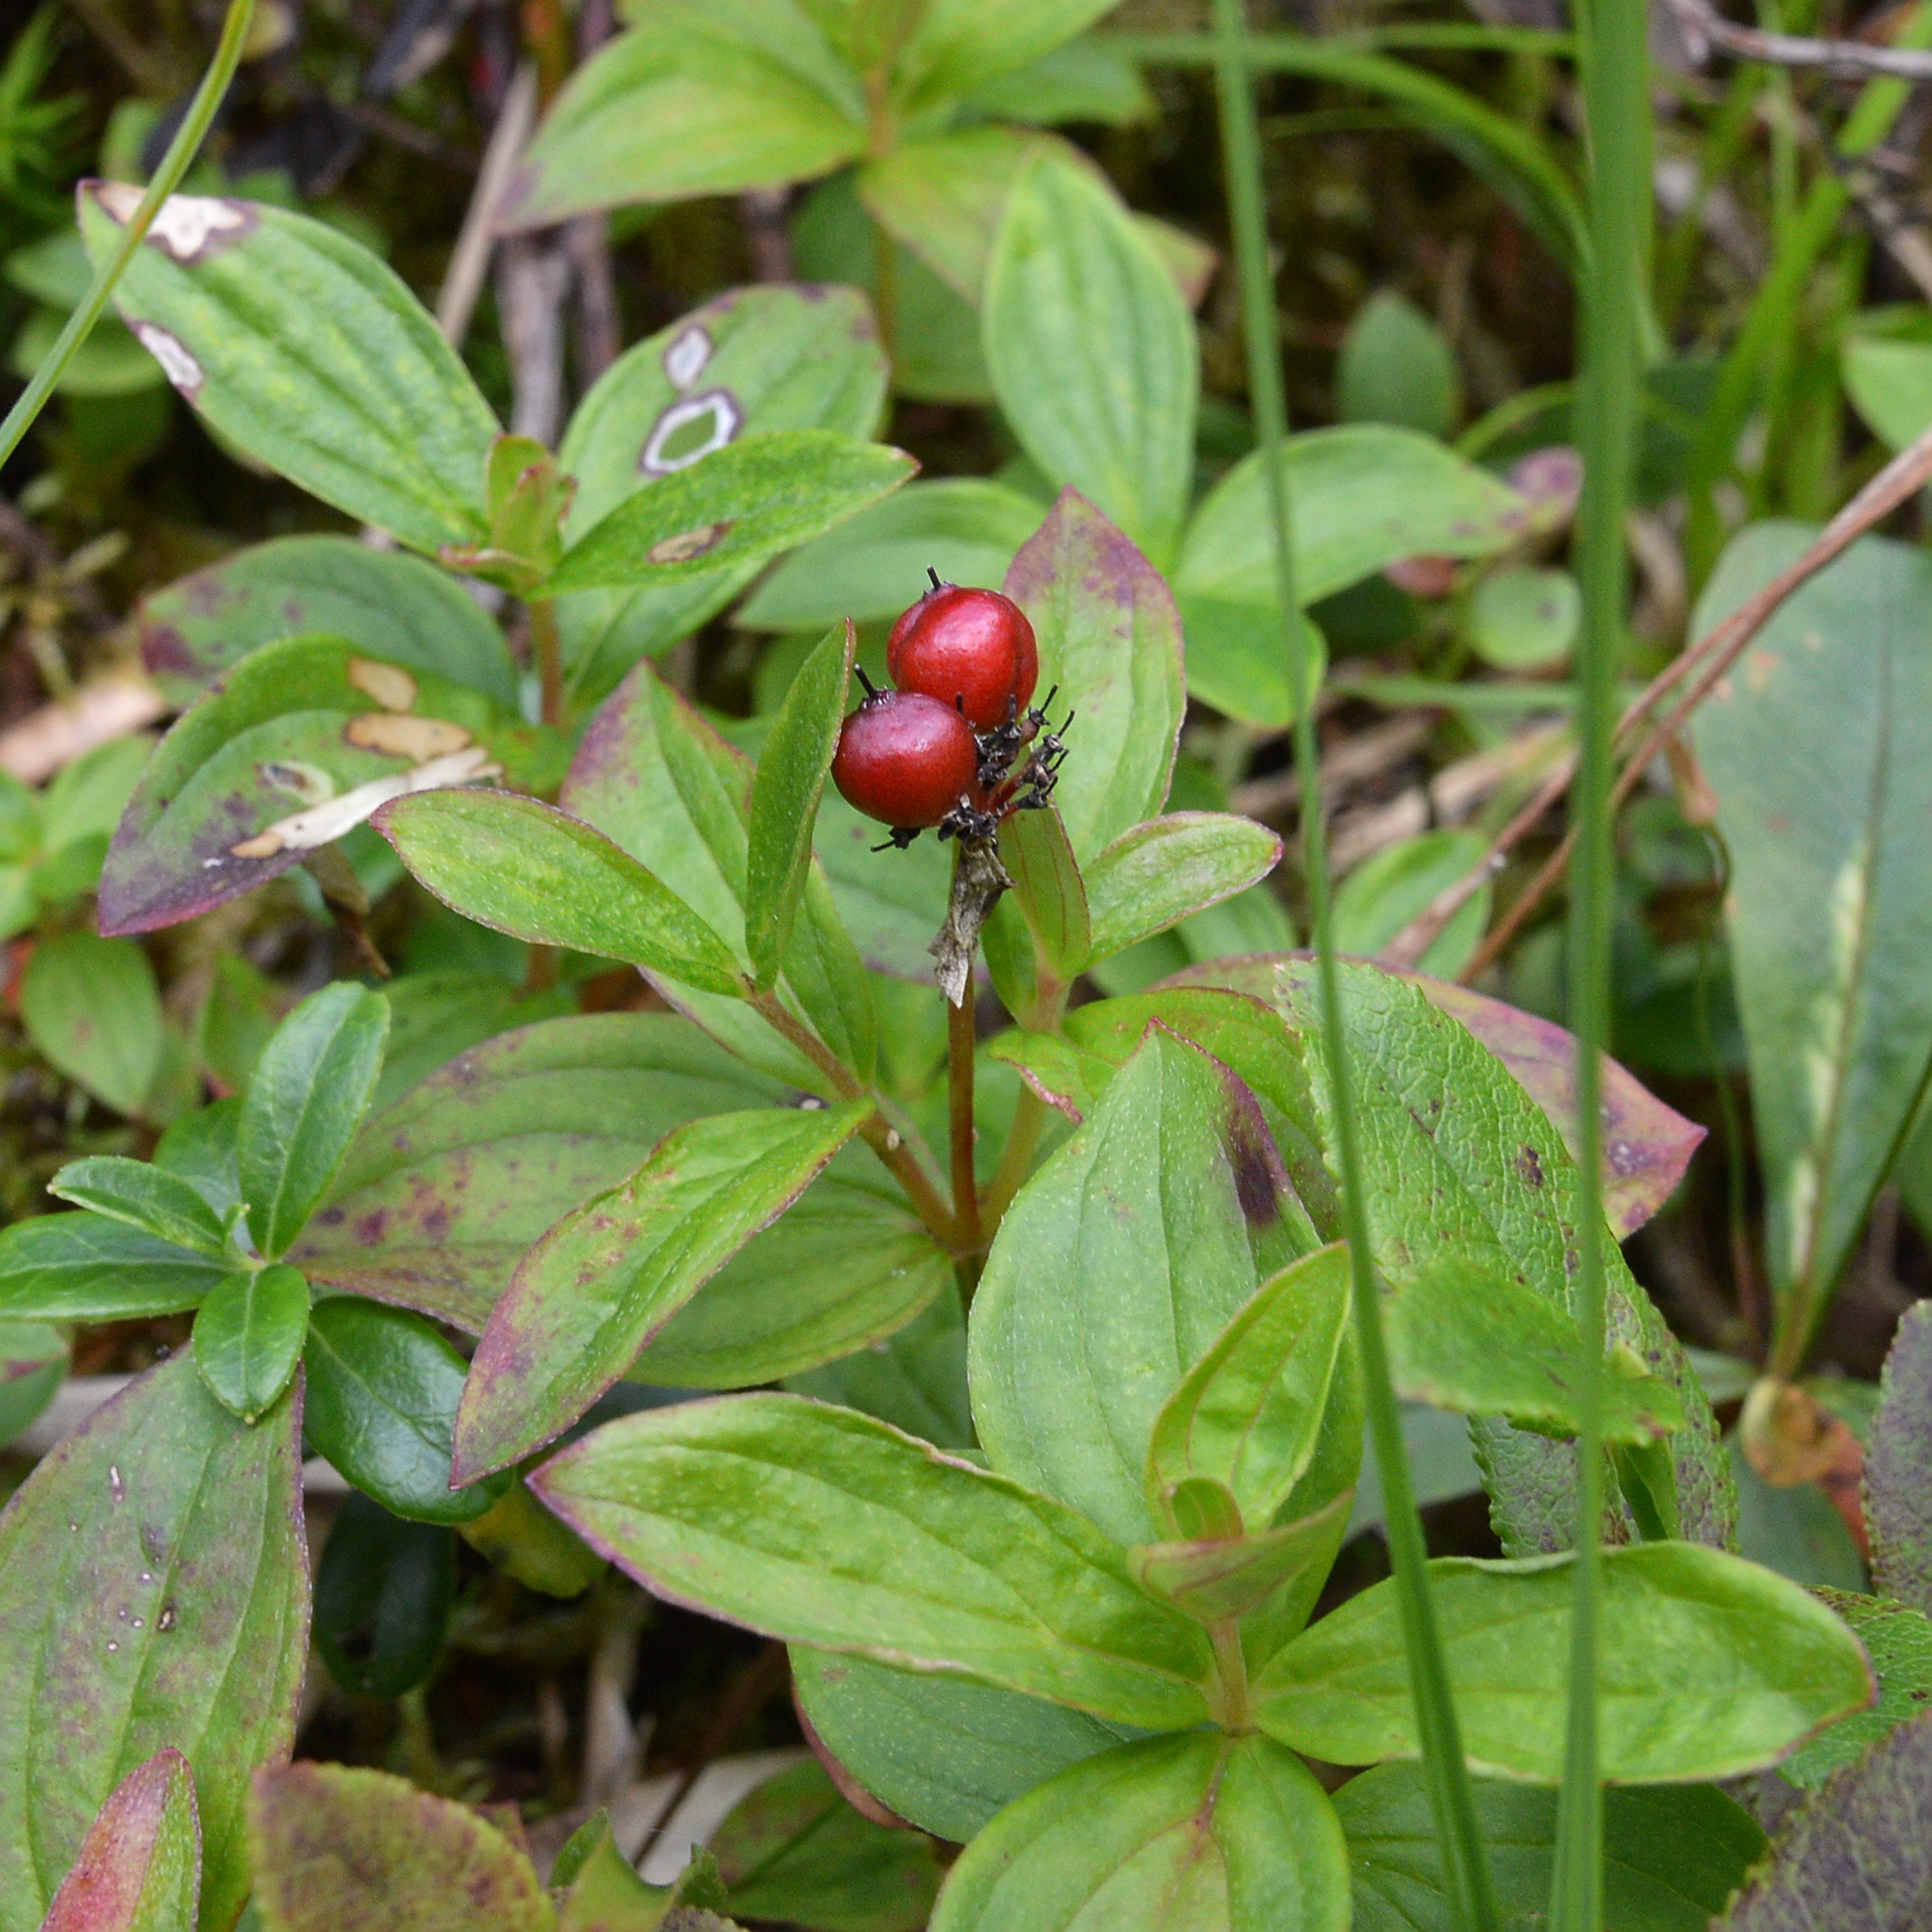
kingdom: Plantae
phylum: Tracheophyta
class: Magnoliopsida
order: Cornales
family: Cornaceae
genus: Cornus
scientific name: Cornus suecica
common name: Dwarf cornel
